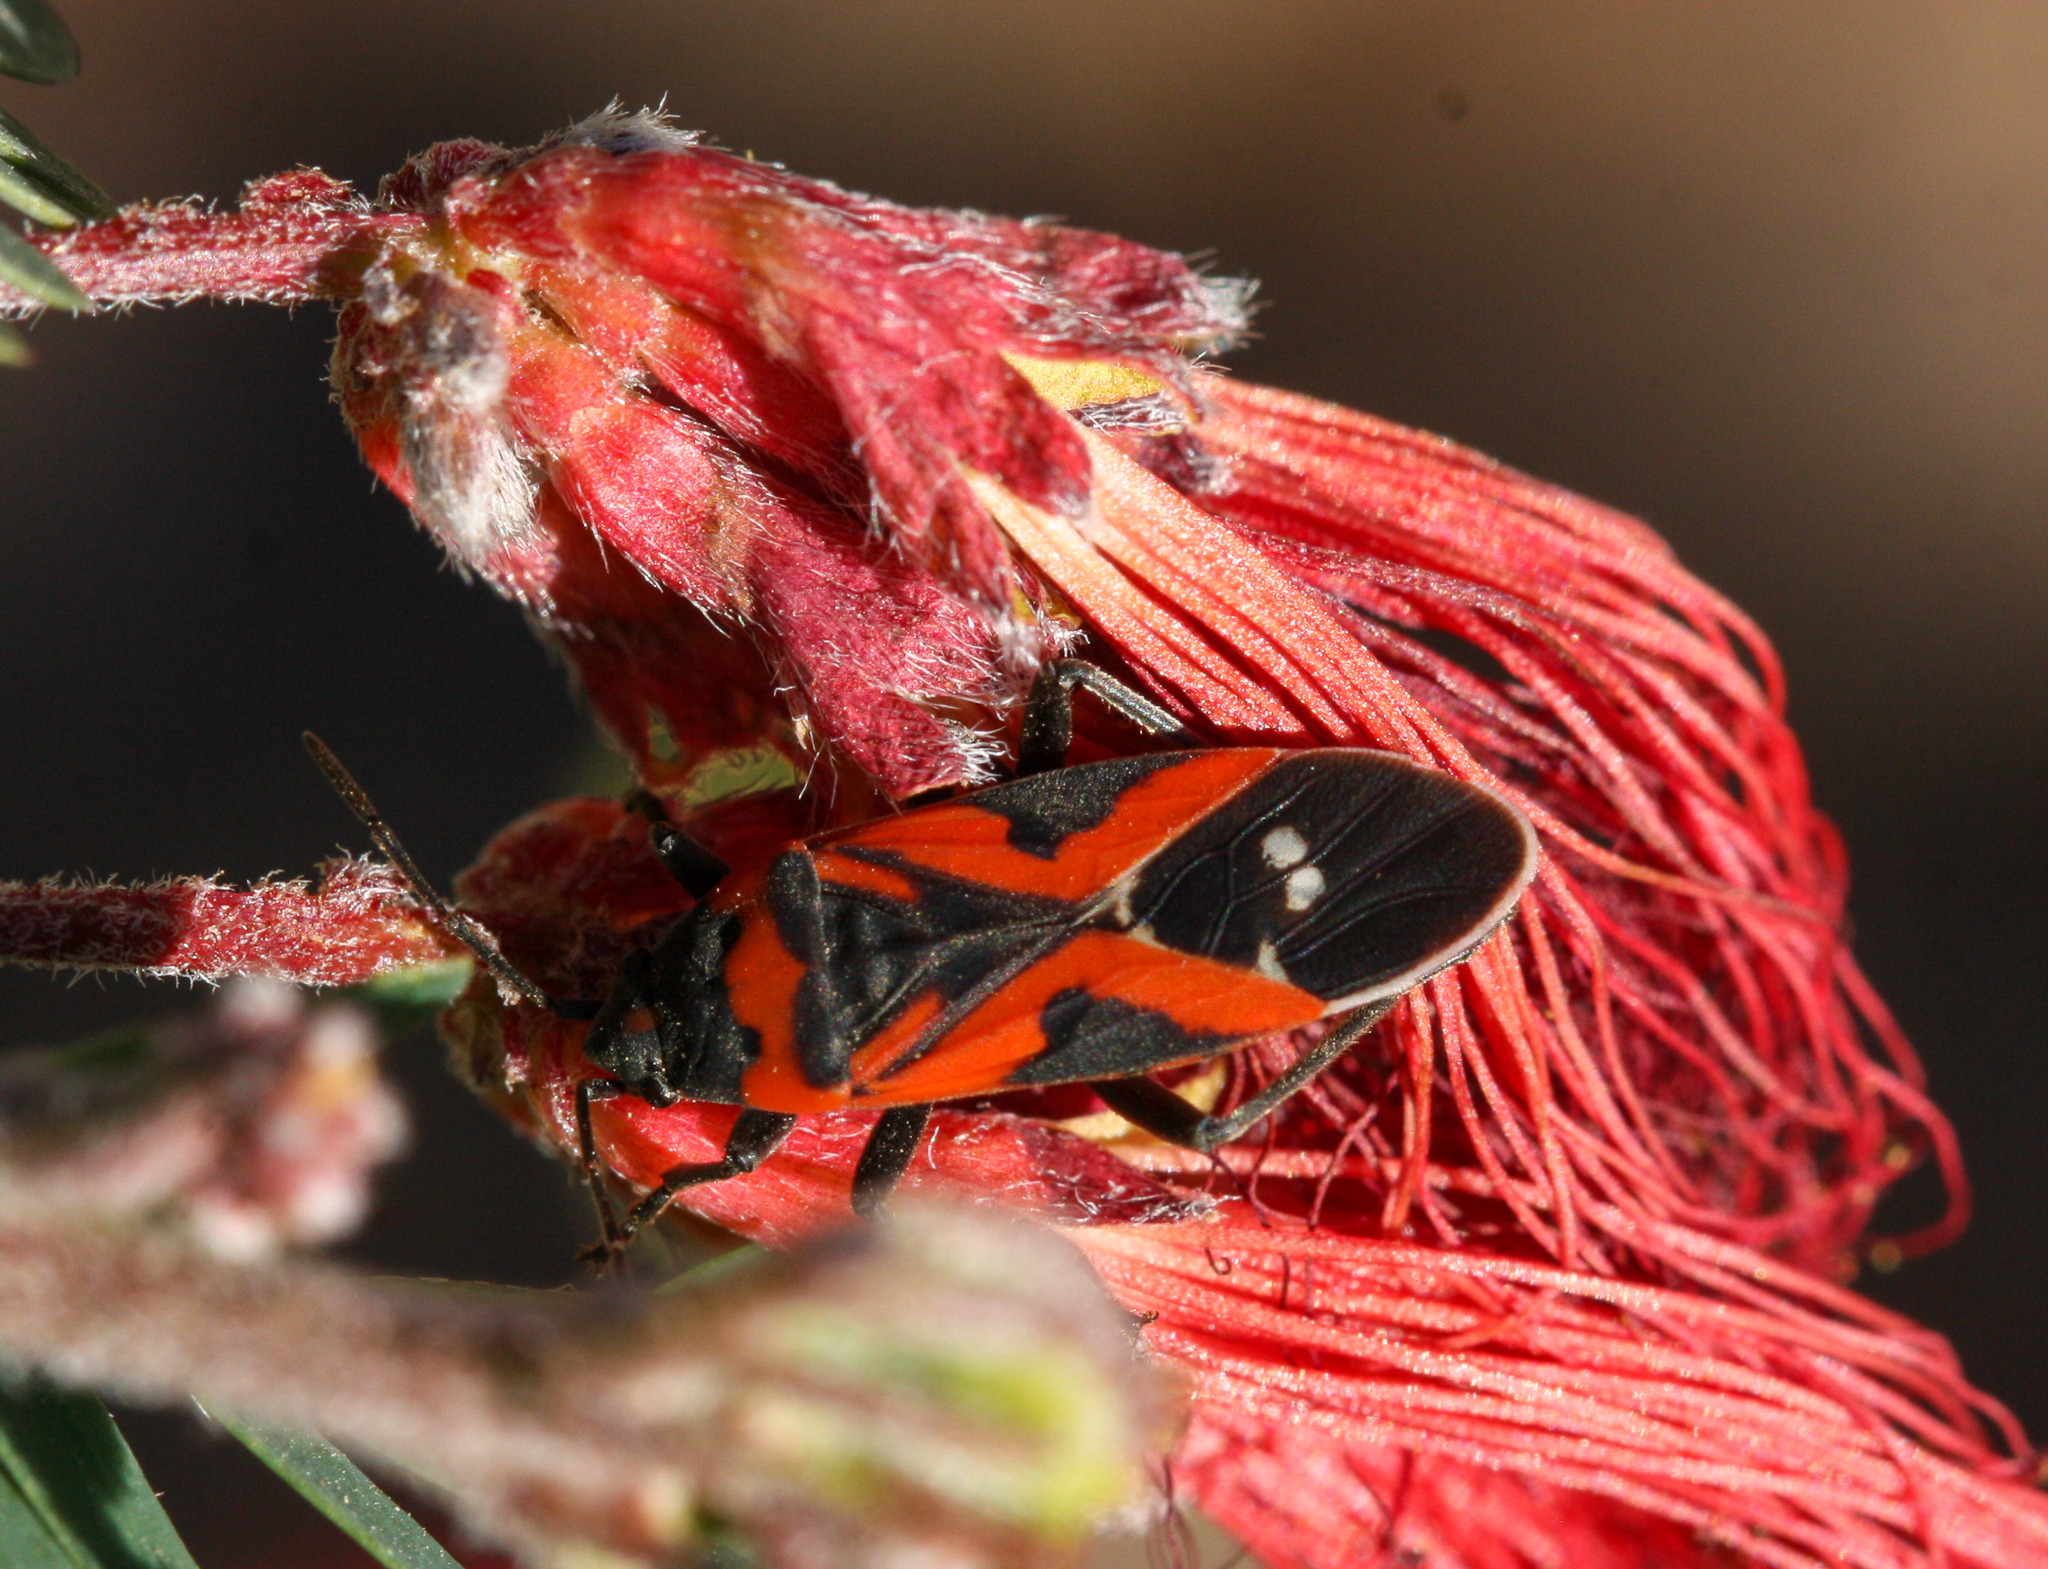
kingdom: Animalia
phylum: Arthropoda
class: Insecta
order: Hemiptera
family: Lygaeidae
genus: Lygaeus
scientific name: Lygaeus reclivatus
